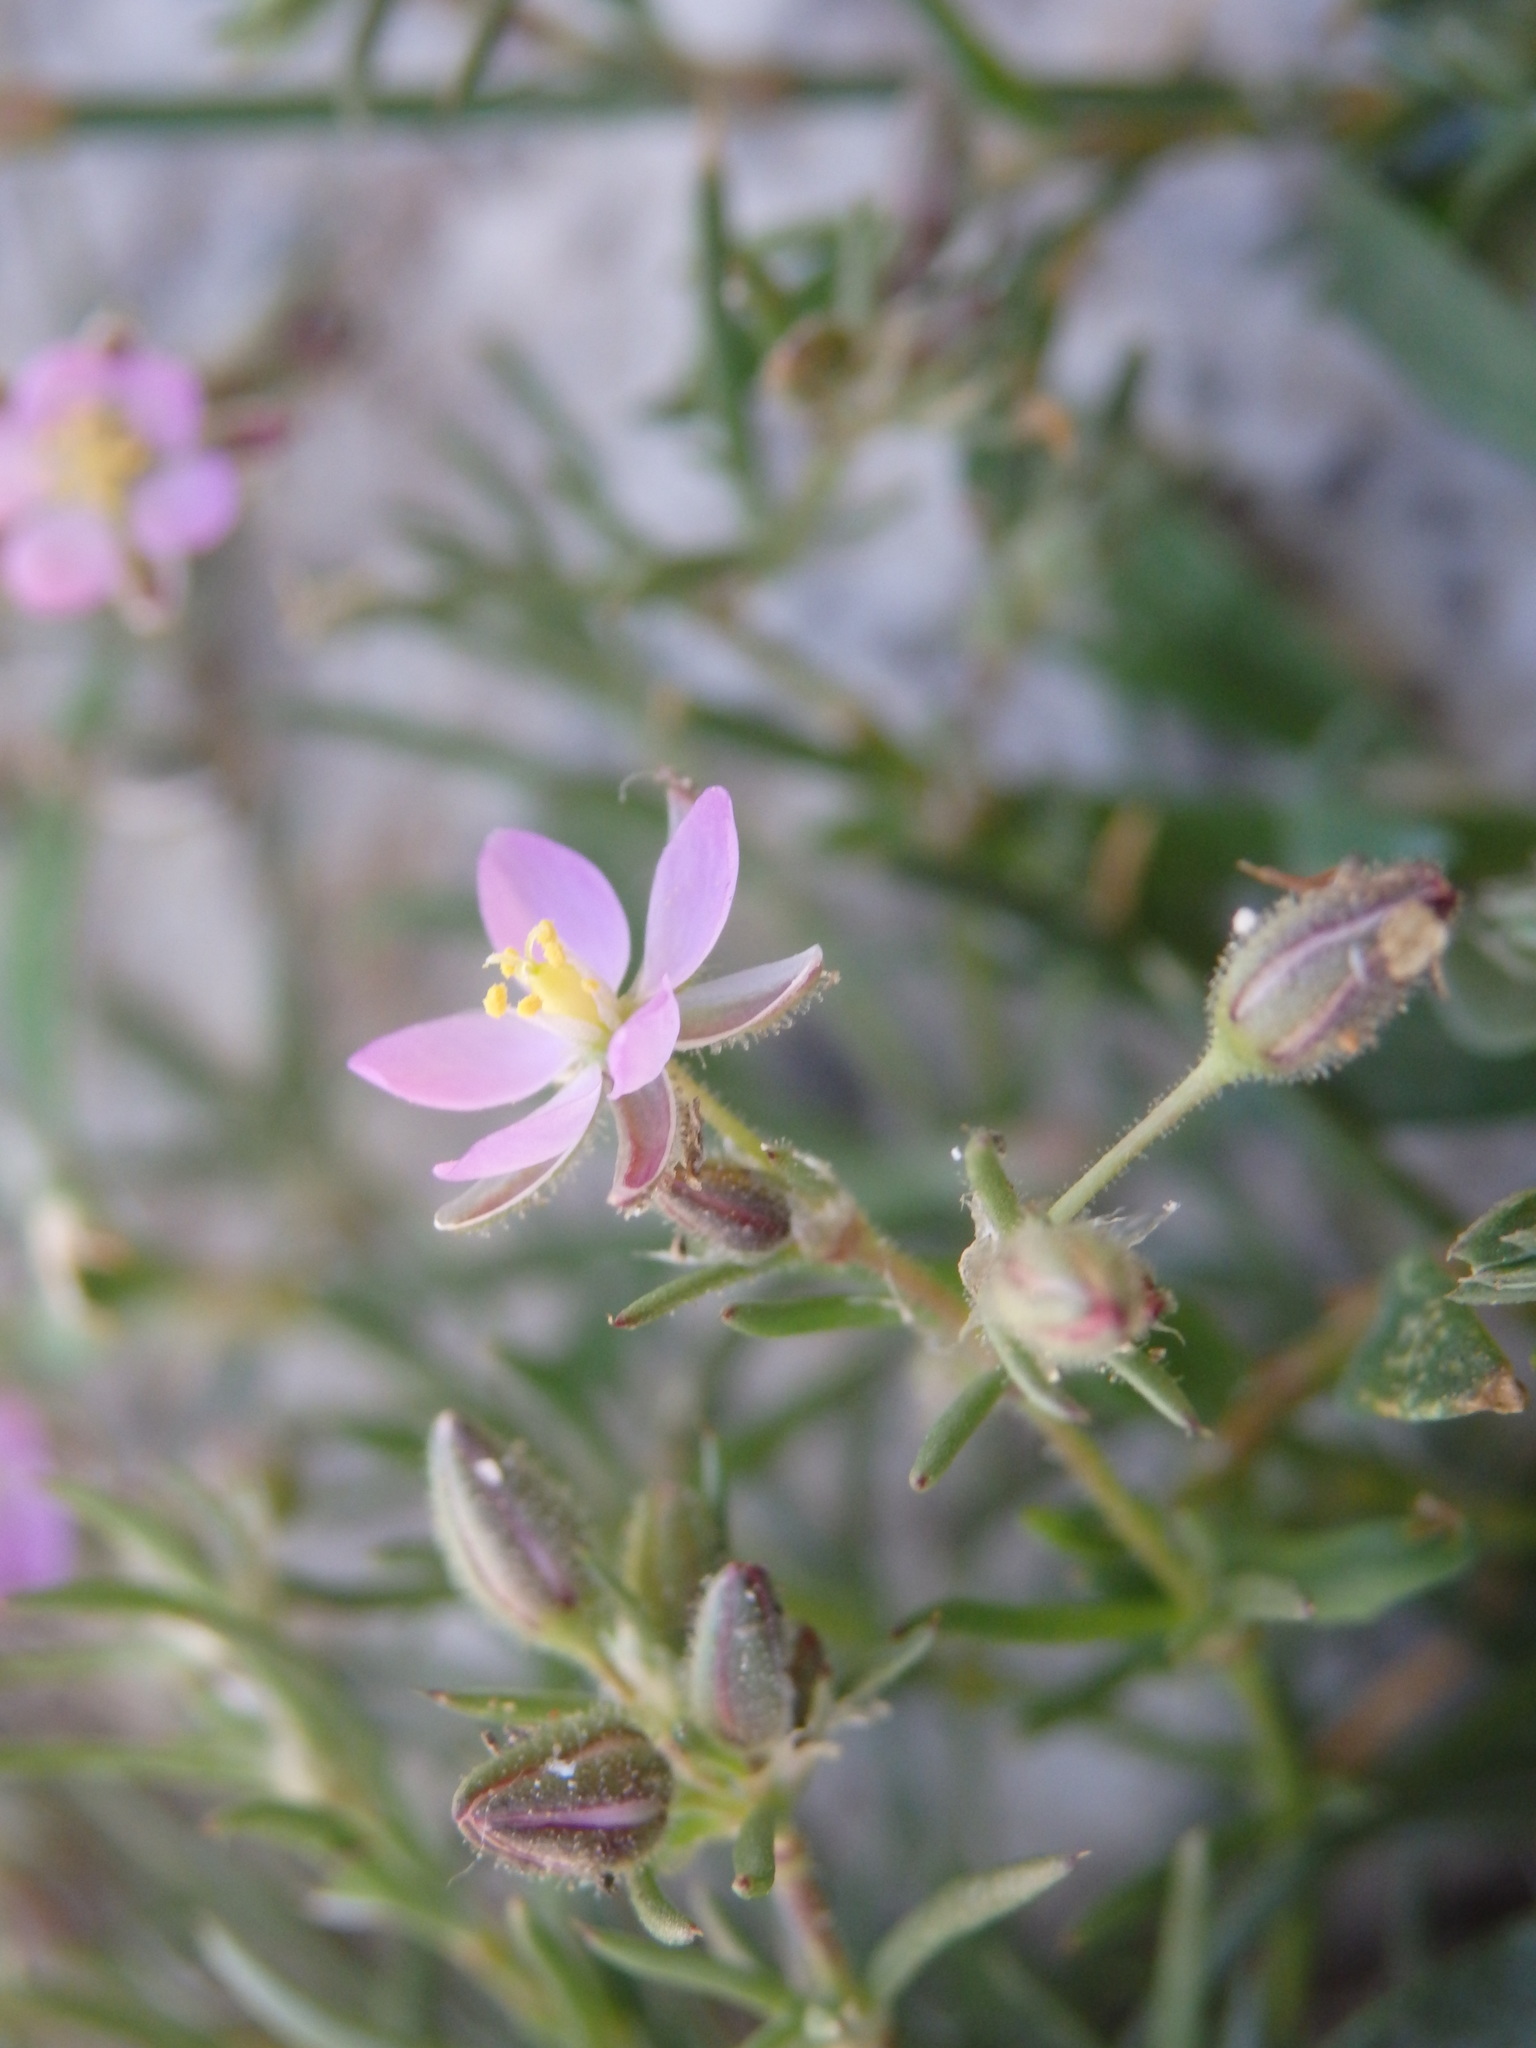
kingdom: Plantae
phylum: Tracheophyta
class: Magnoliopsida
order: Caryophyllales
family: Caryophyllaceae
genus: Spergularia
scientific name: Spergularia rubra
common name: Red sand-spurrey
